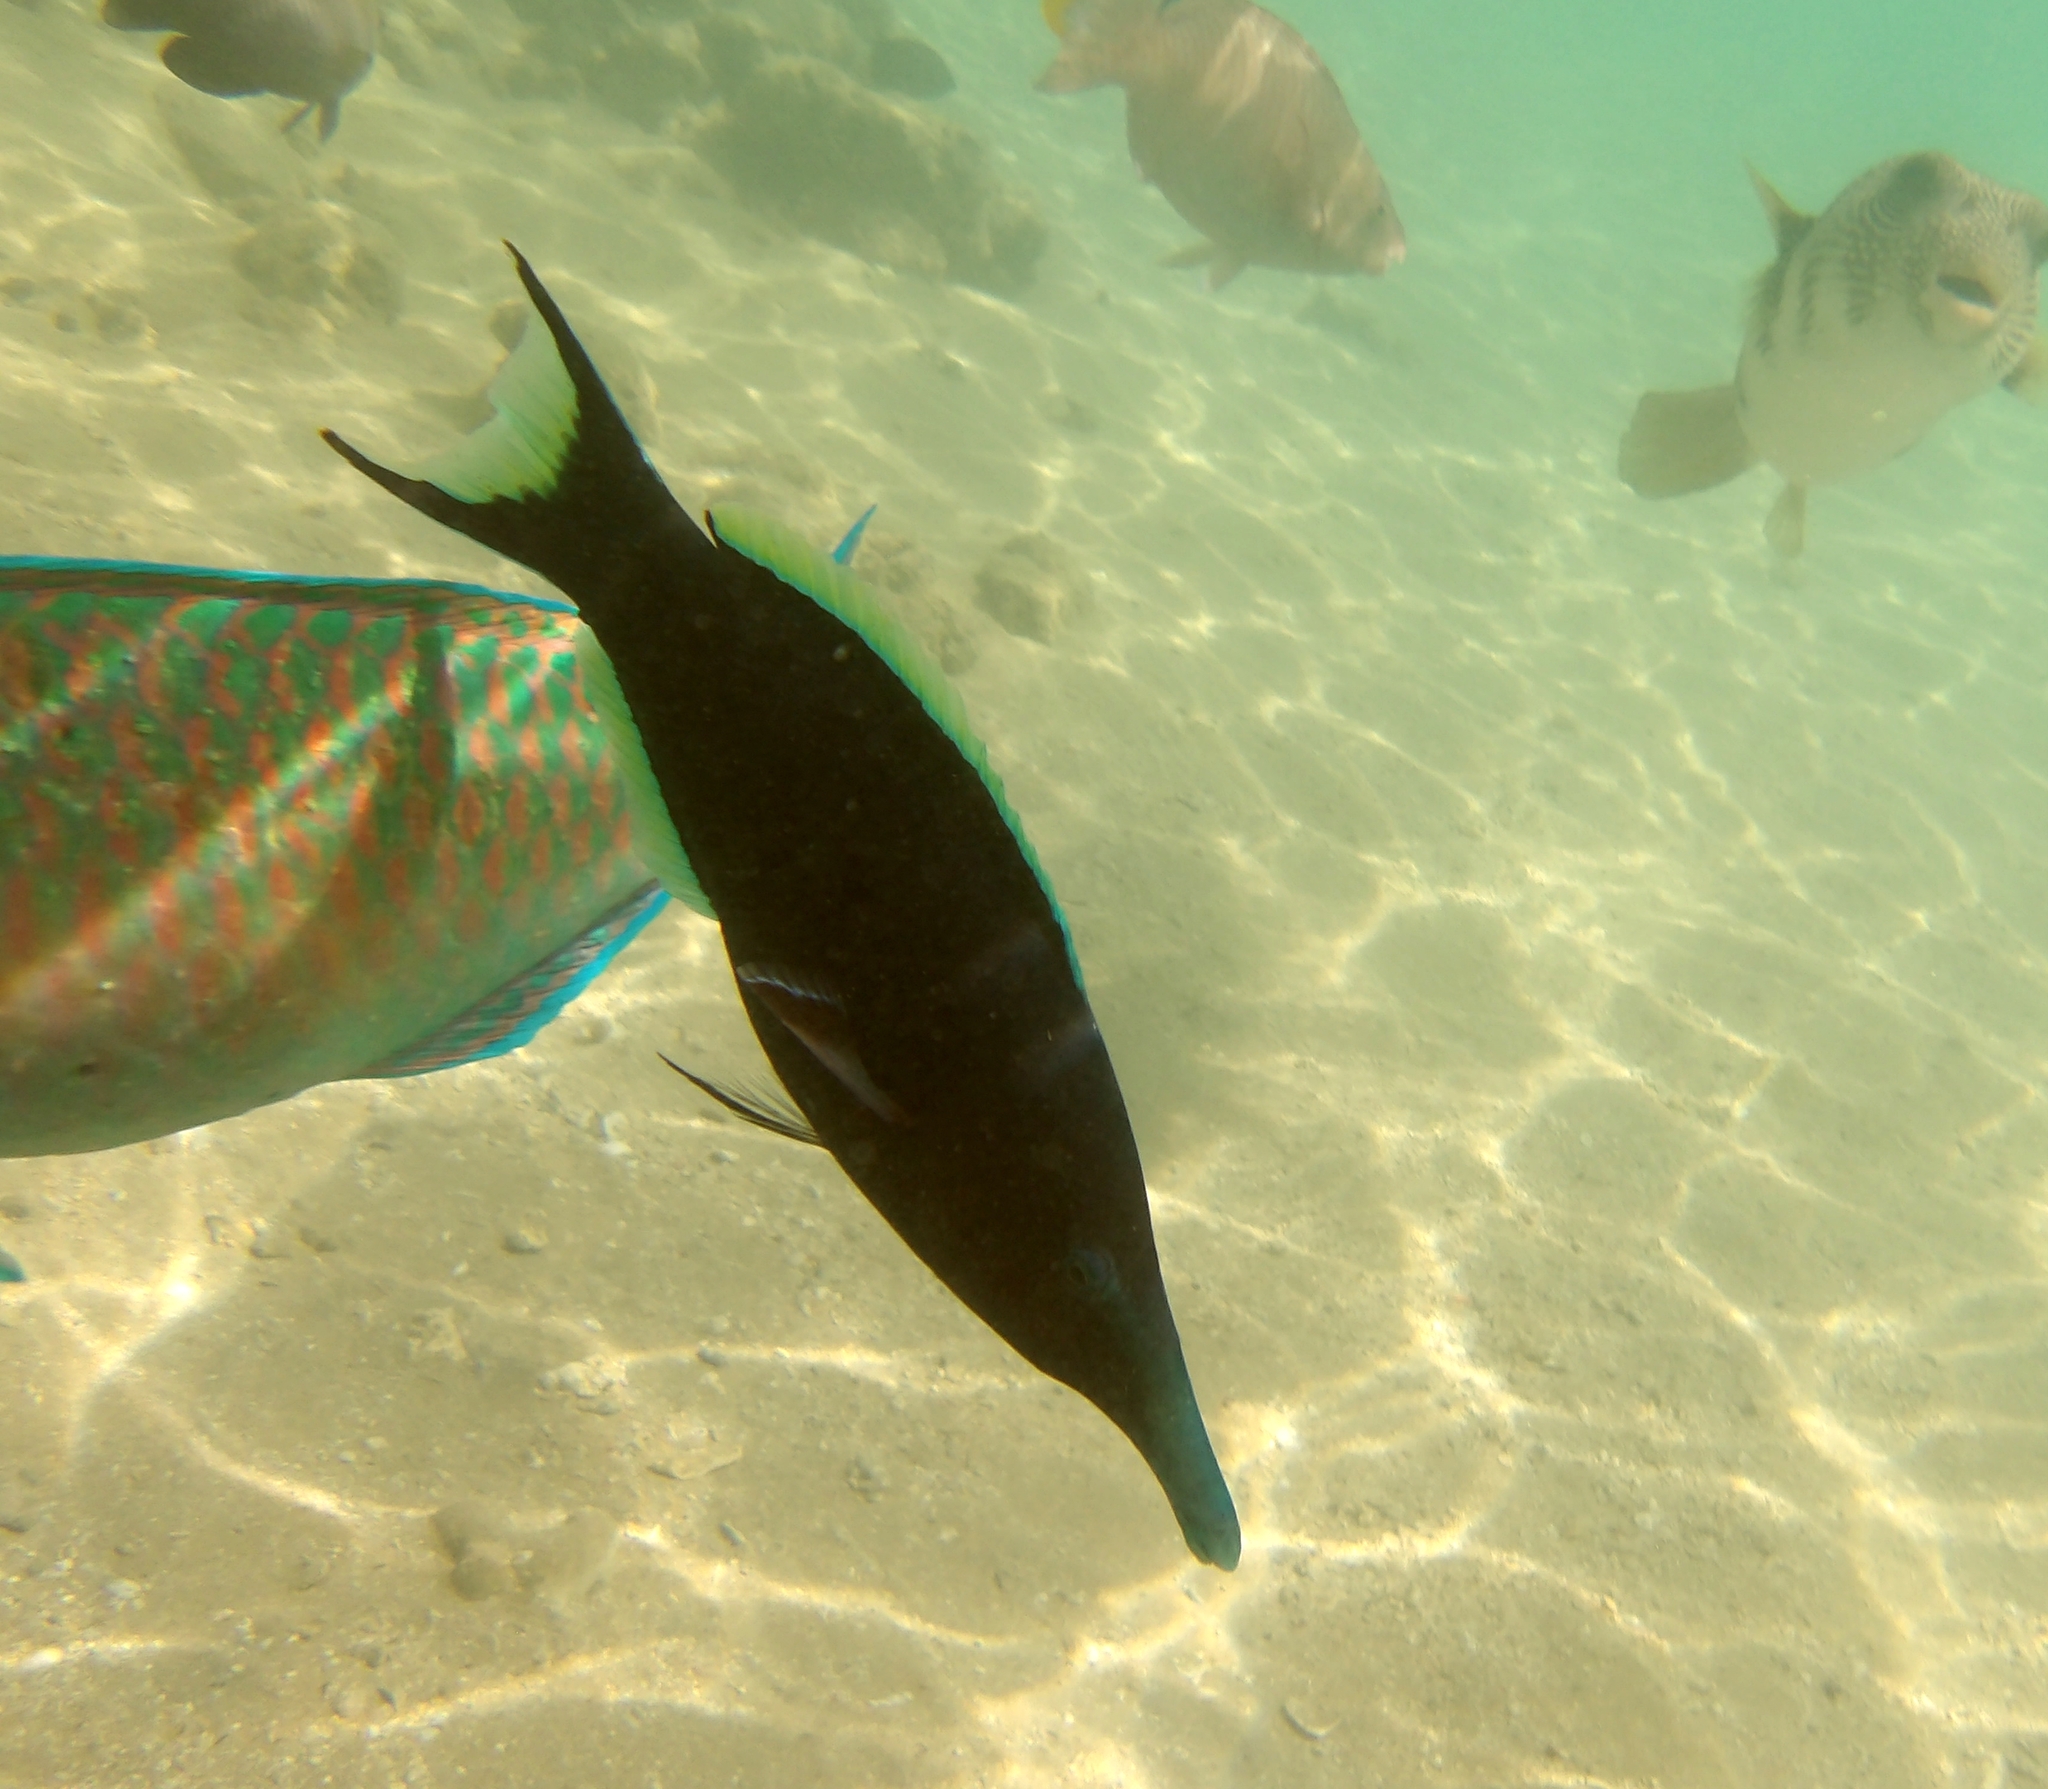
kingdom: Animalia
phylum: Chordata
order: Perciformes
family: Labridae
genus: Gomphosus
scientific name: Gomphosus klunzingeri
